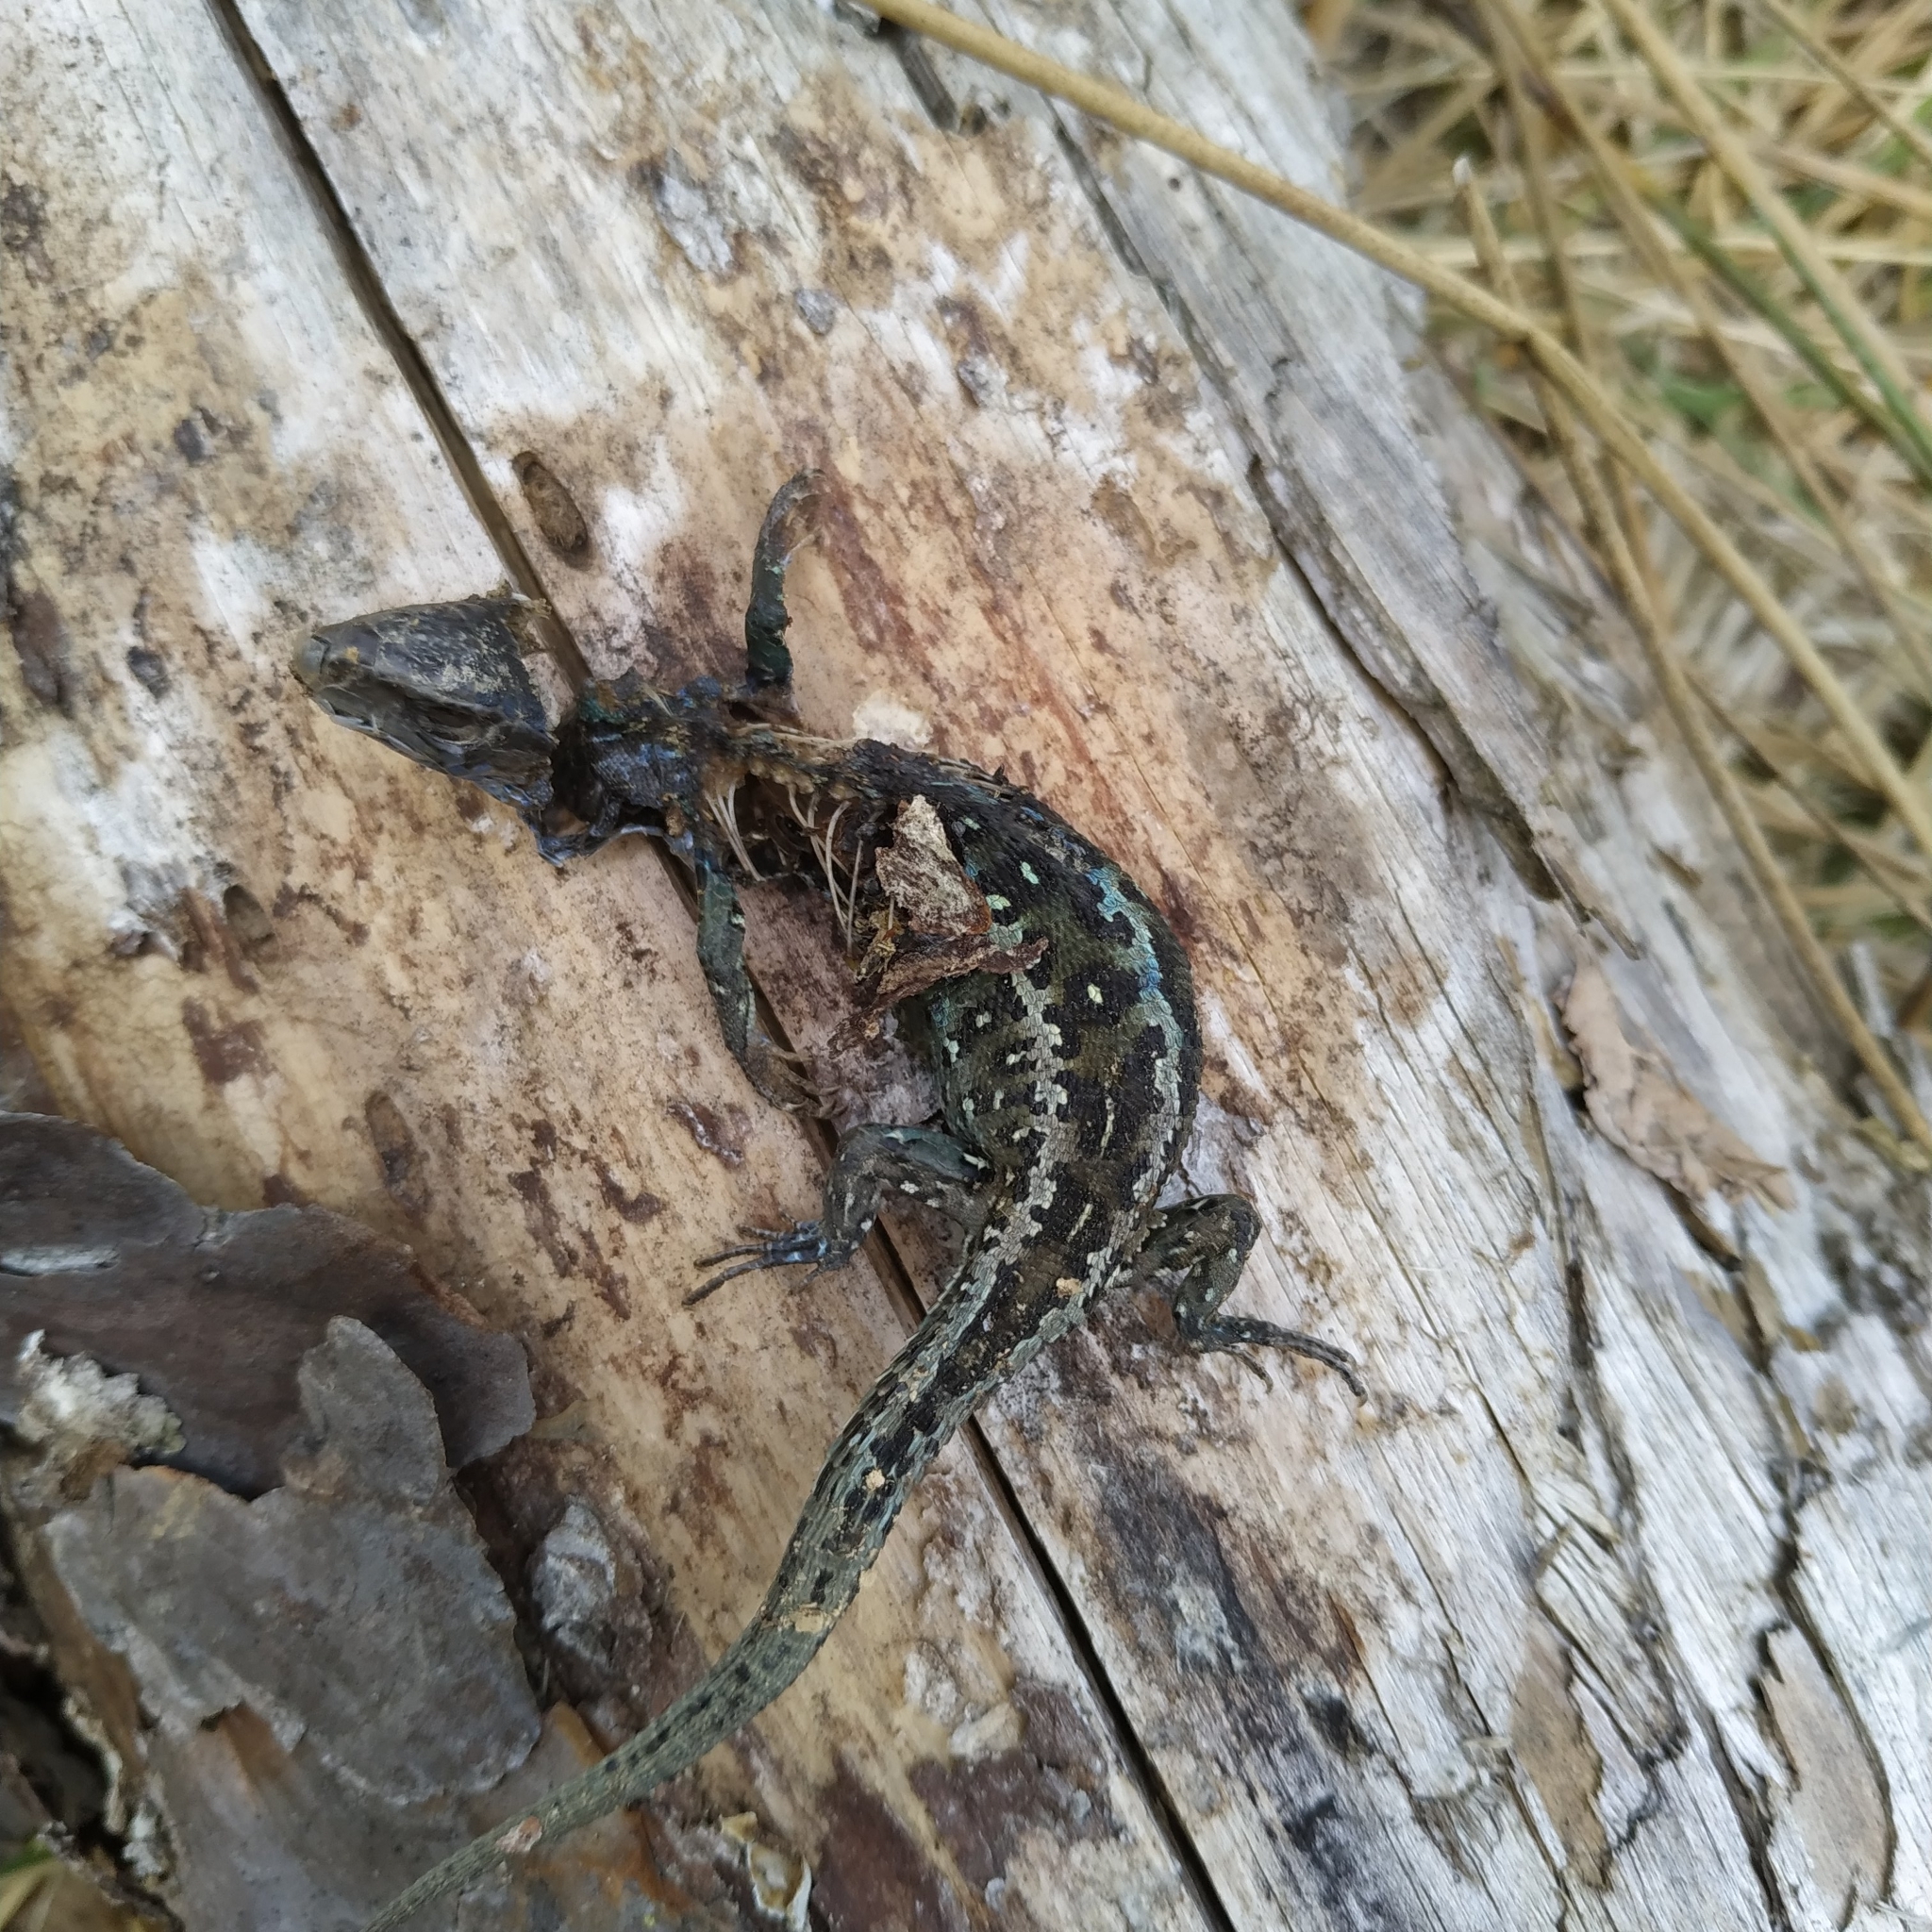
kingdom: Animalia
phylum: Chordata
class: Squamata
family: Lacertidae
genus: Lacerta
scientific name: Lacerta agilis
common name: Sand lizard
